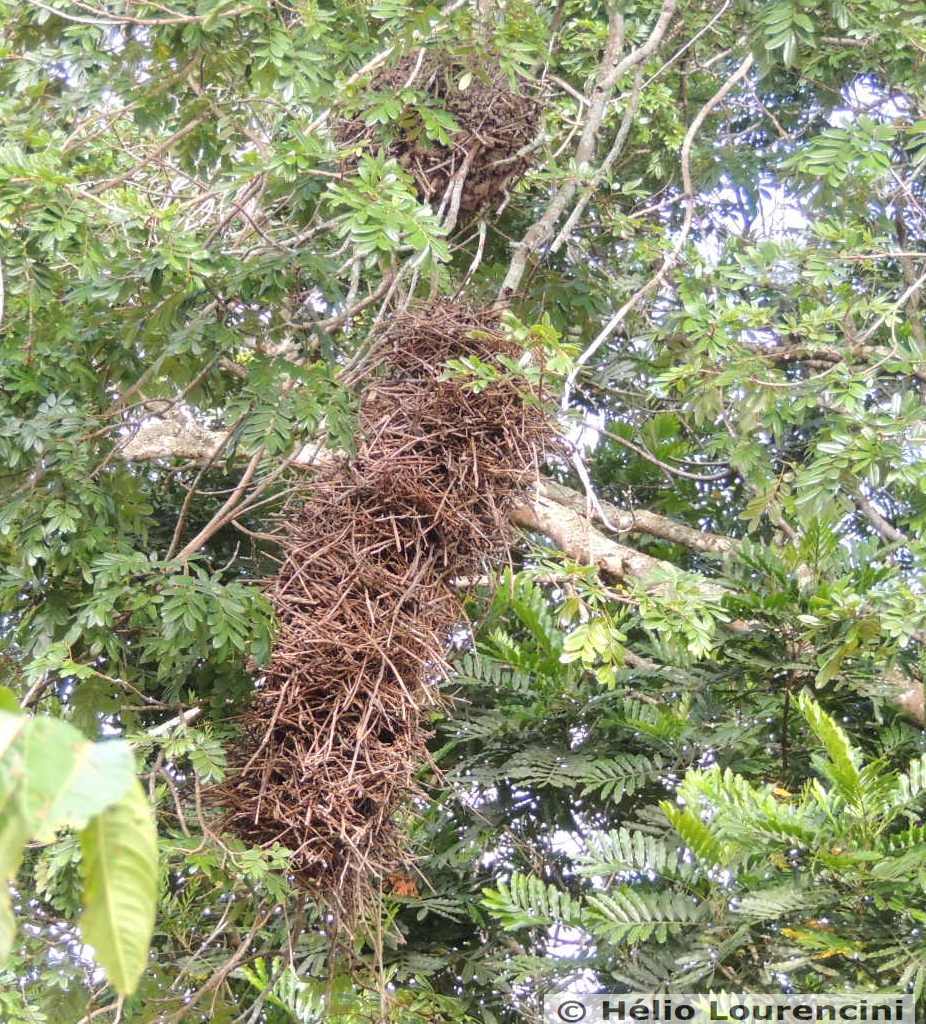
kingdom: Animalia
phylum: Chordata
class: Aves
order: Passeriformes
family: Furnariidae
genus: Phacellodomus
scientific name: Phacellodomus rufifrons
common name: Rufous-fronted thornbird
